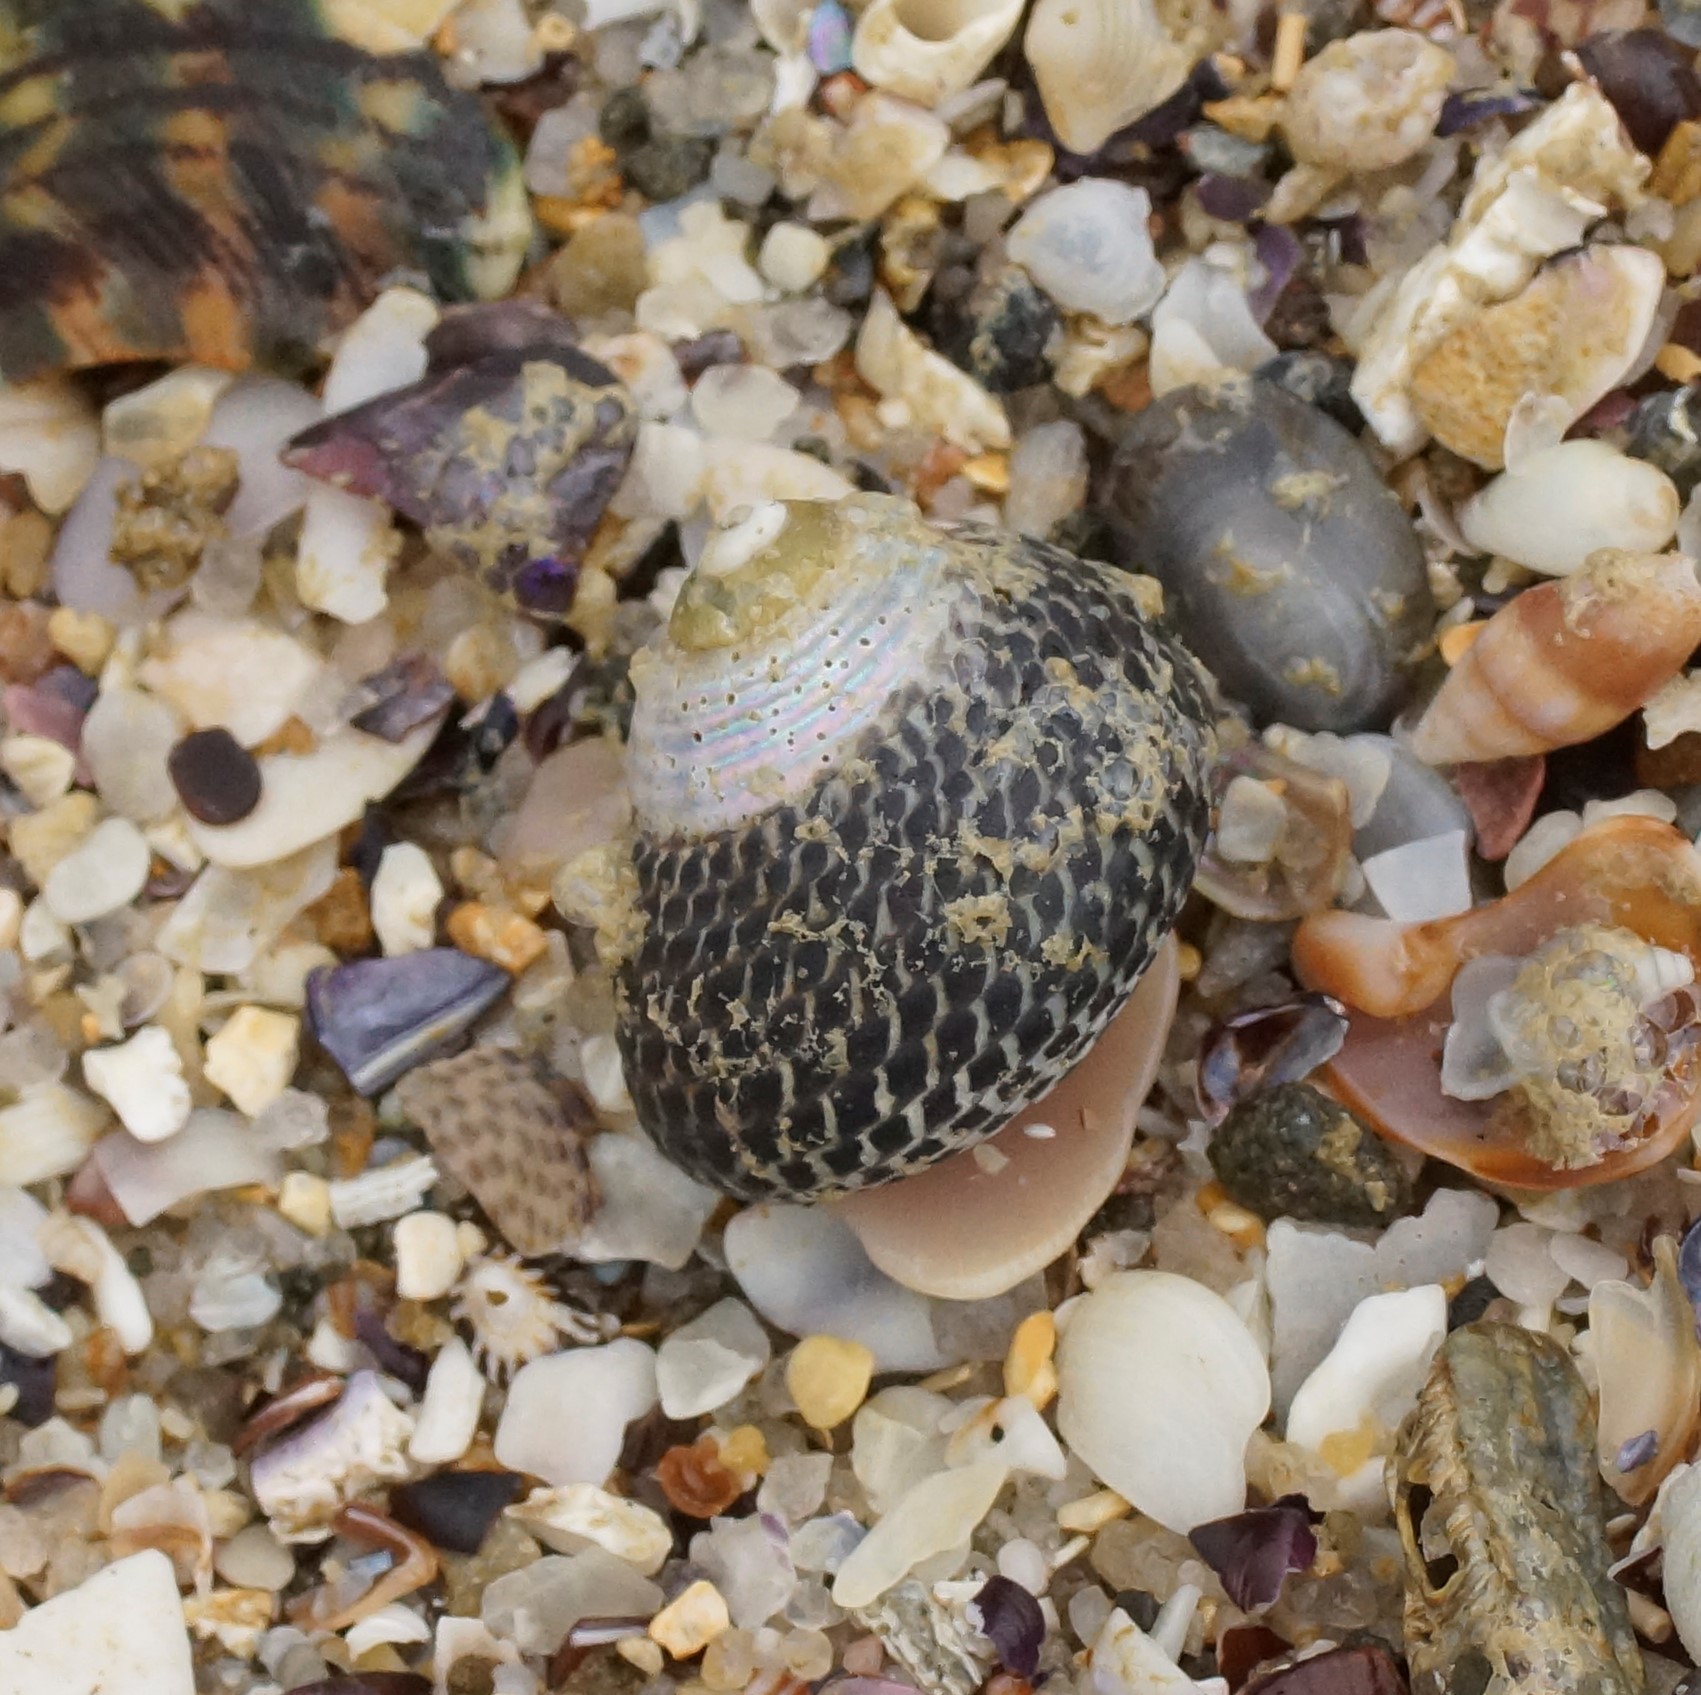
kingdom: Animalia
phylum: Mollusca
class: Gastropoda
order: Trochida
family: Trochidae
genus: Chlorodiloma
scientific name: Chlorodiloma adelaidae
